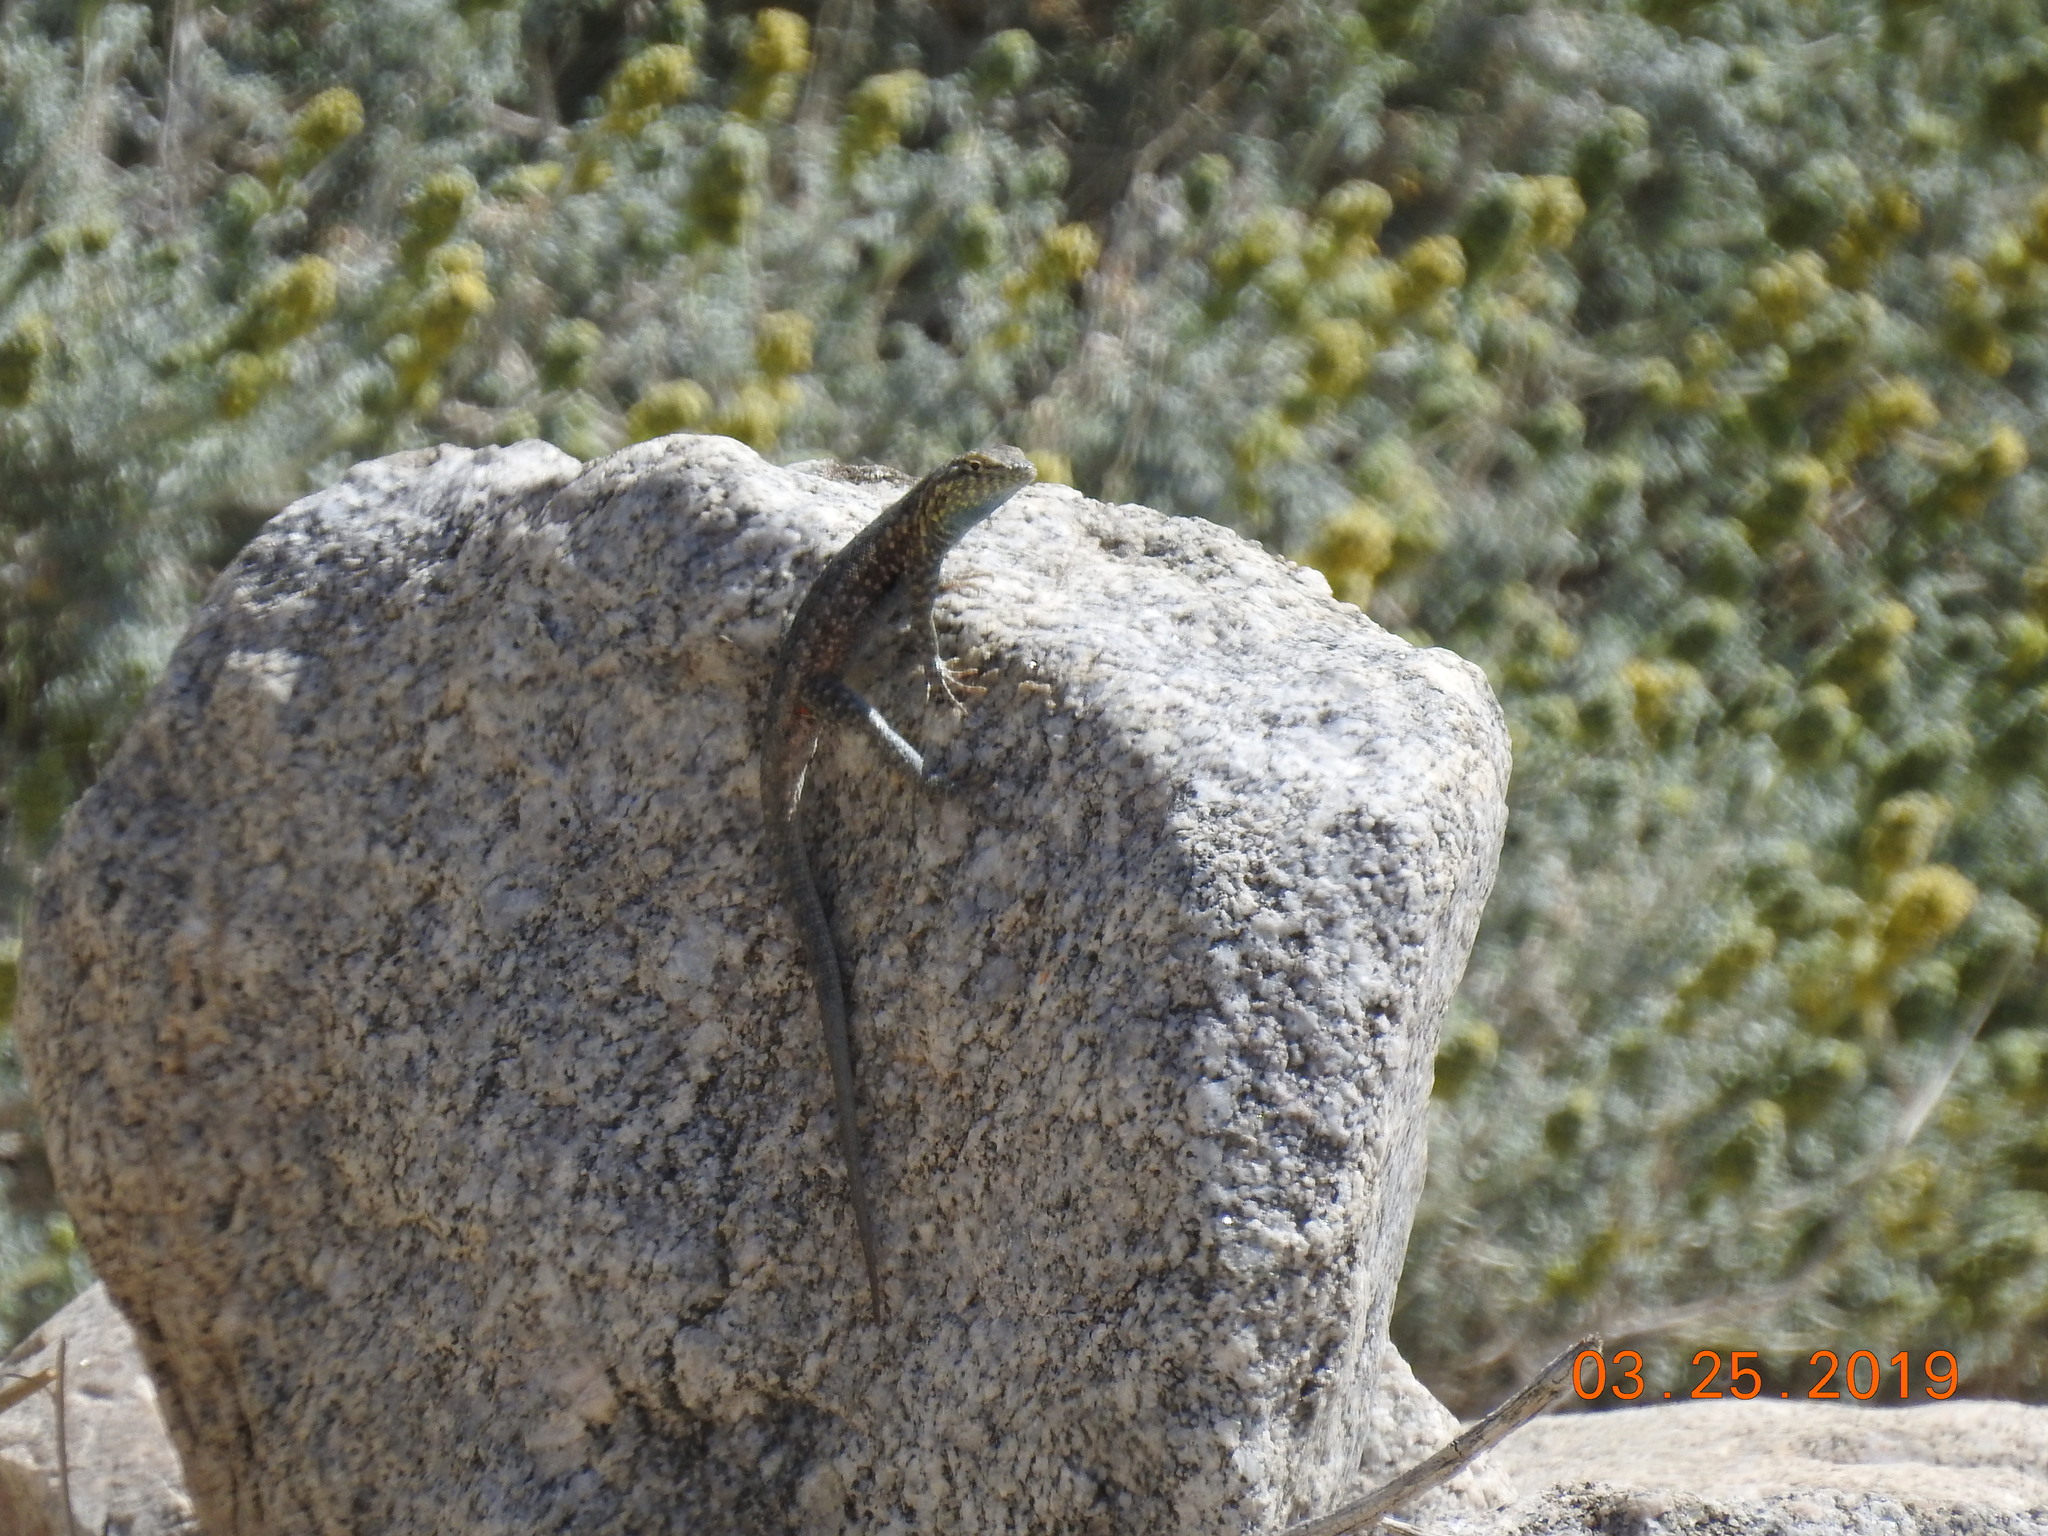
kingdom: Animalia
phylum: Chordata
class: Squamata
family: Phrynosomatidae
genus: Uta
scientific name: Uta stansburiana
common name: Side-blotched lizard
